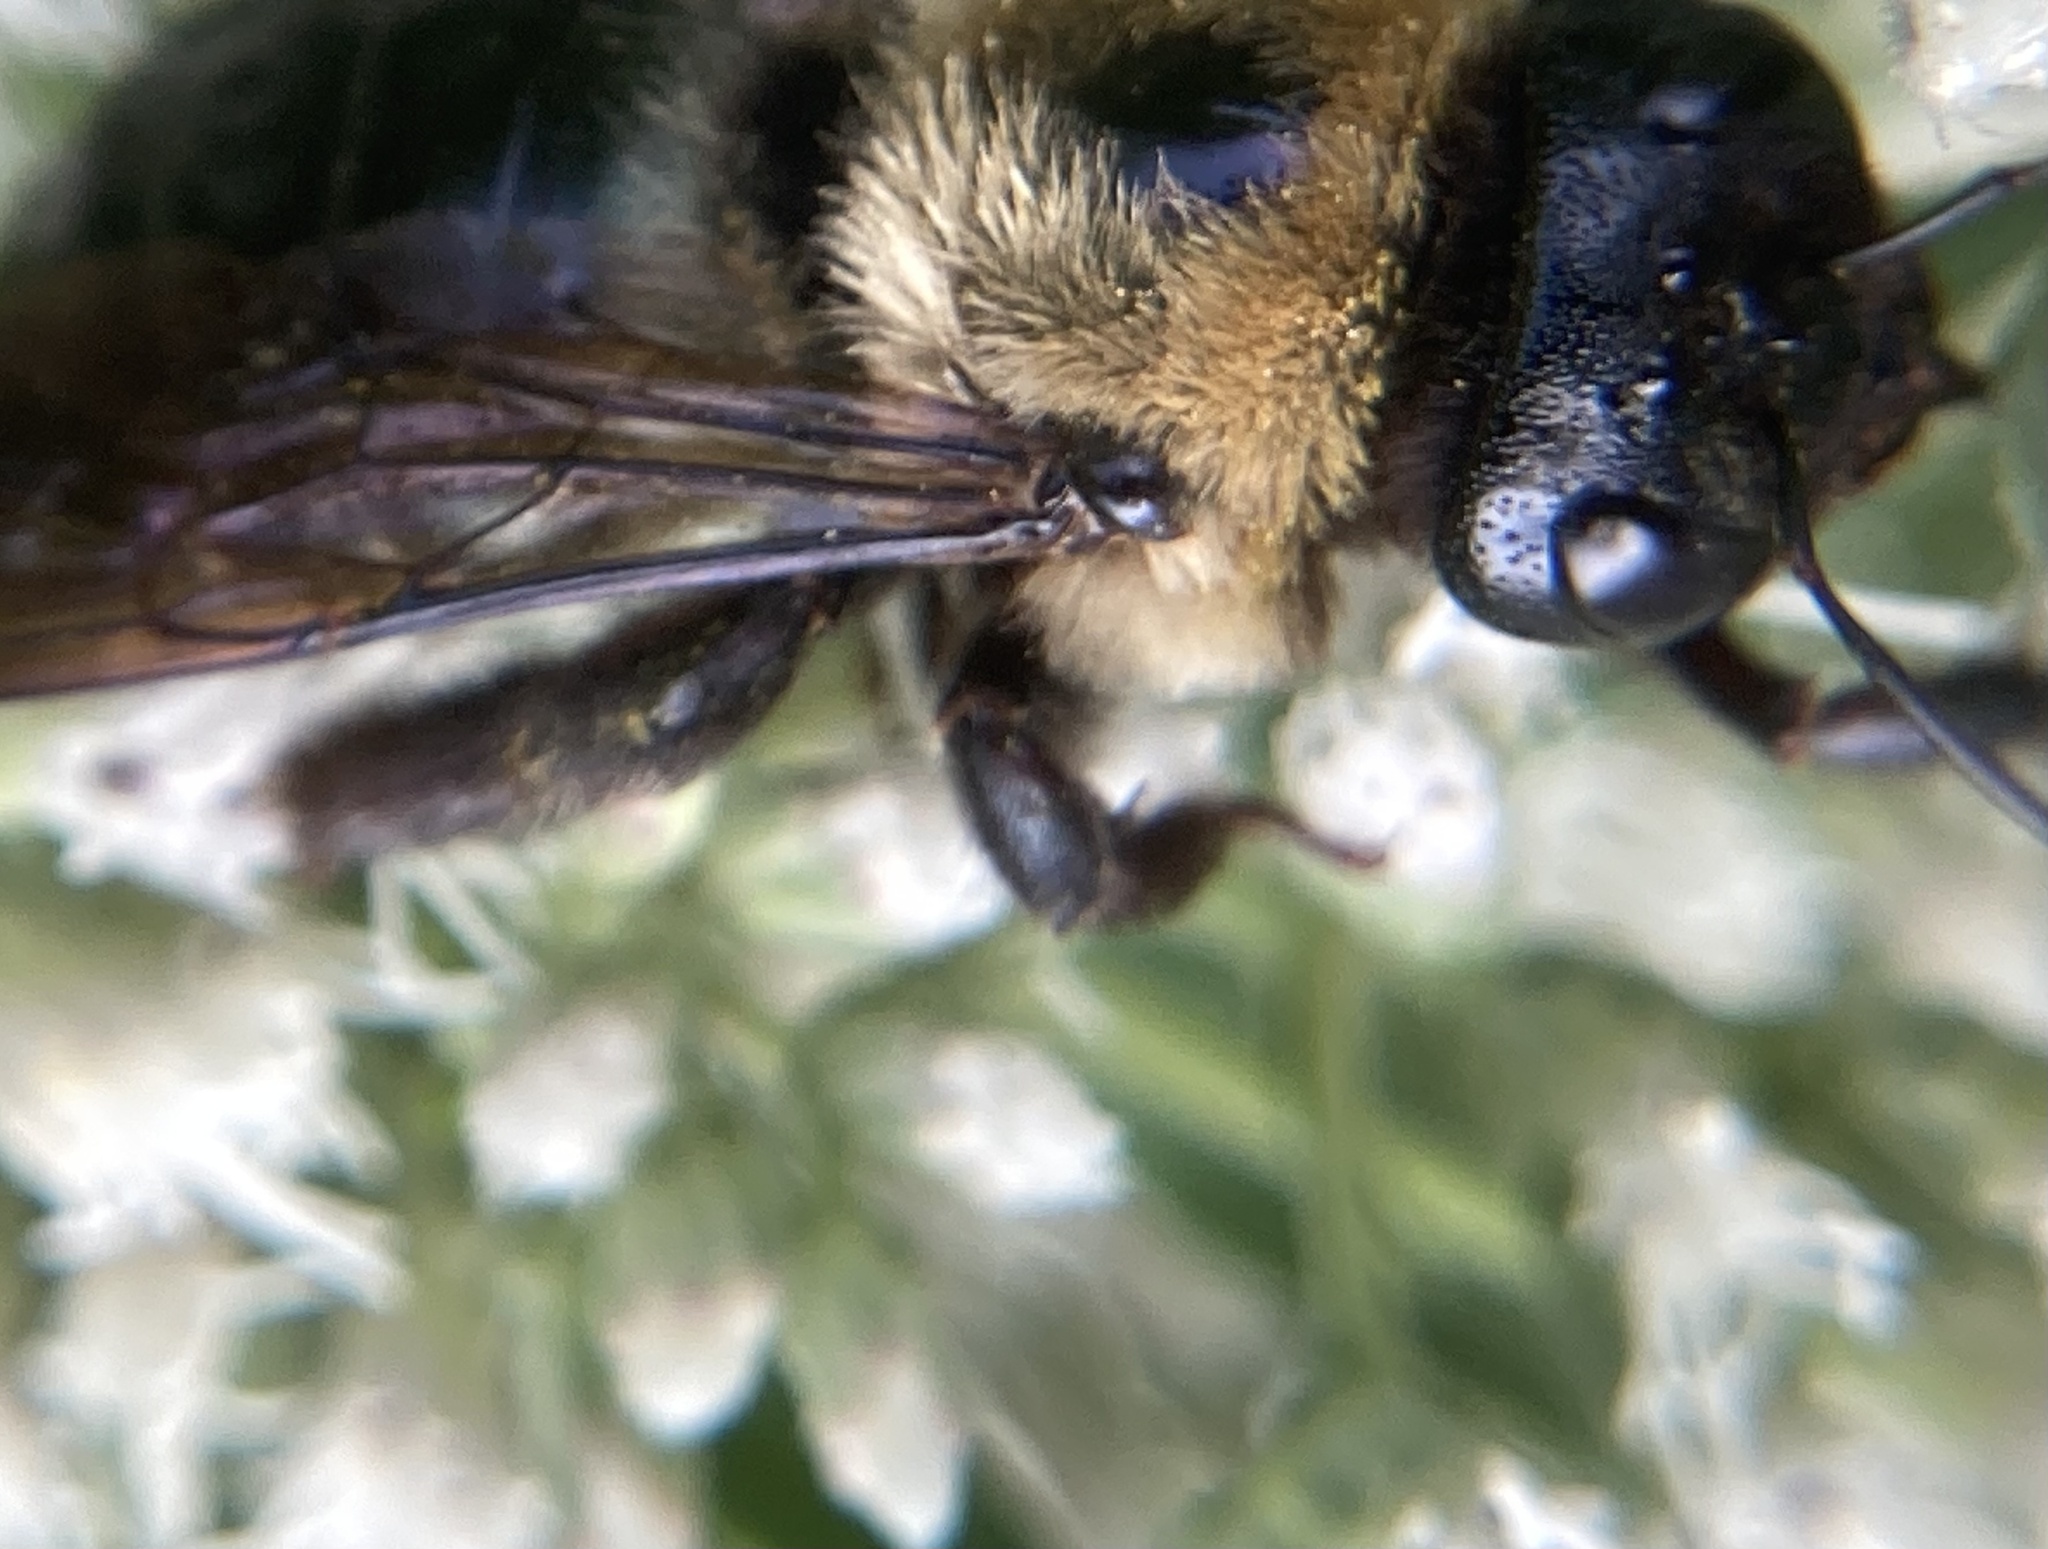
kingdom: Animalia
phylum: Arthropoda
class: Insecta
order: Hymenoptera
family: Apidae
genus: Xylocopa
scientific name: Xylocopa virginica
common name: Carpenter bee
